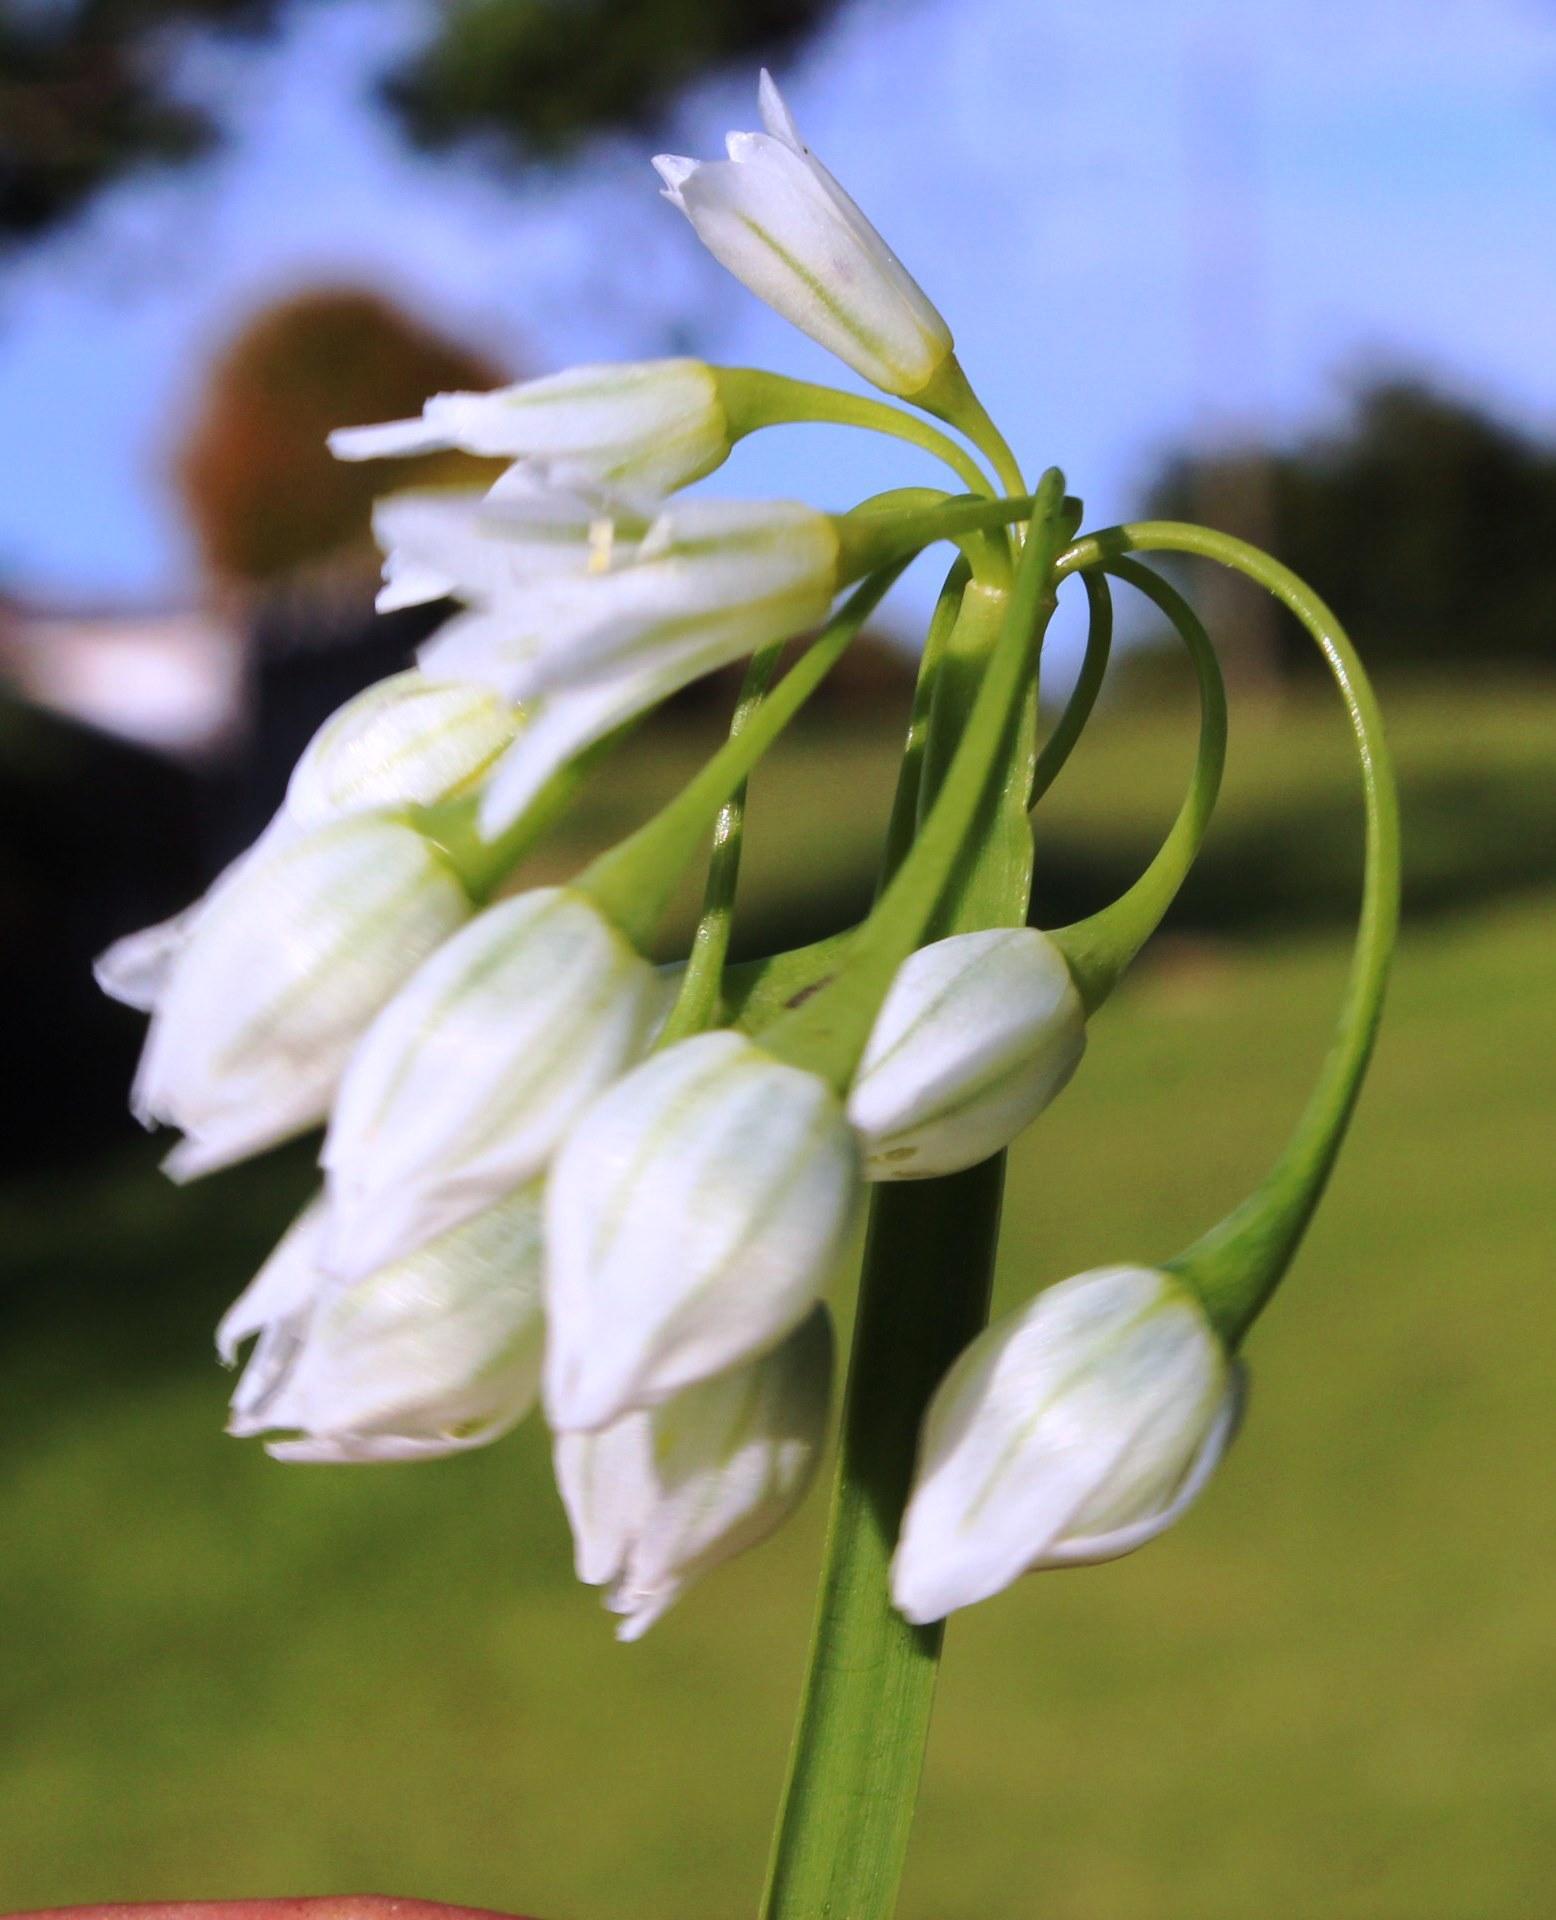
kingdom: Plantae
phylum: Tracheophyta
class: Liliopsida
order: Asparagales
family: Amaryllidaceae
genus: Allium
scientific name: Allium triquetrum
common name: Three-cornered garlic
